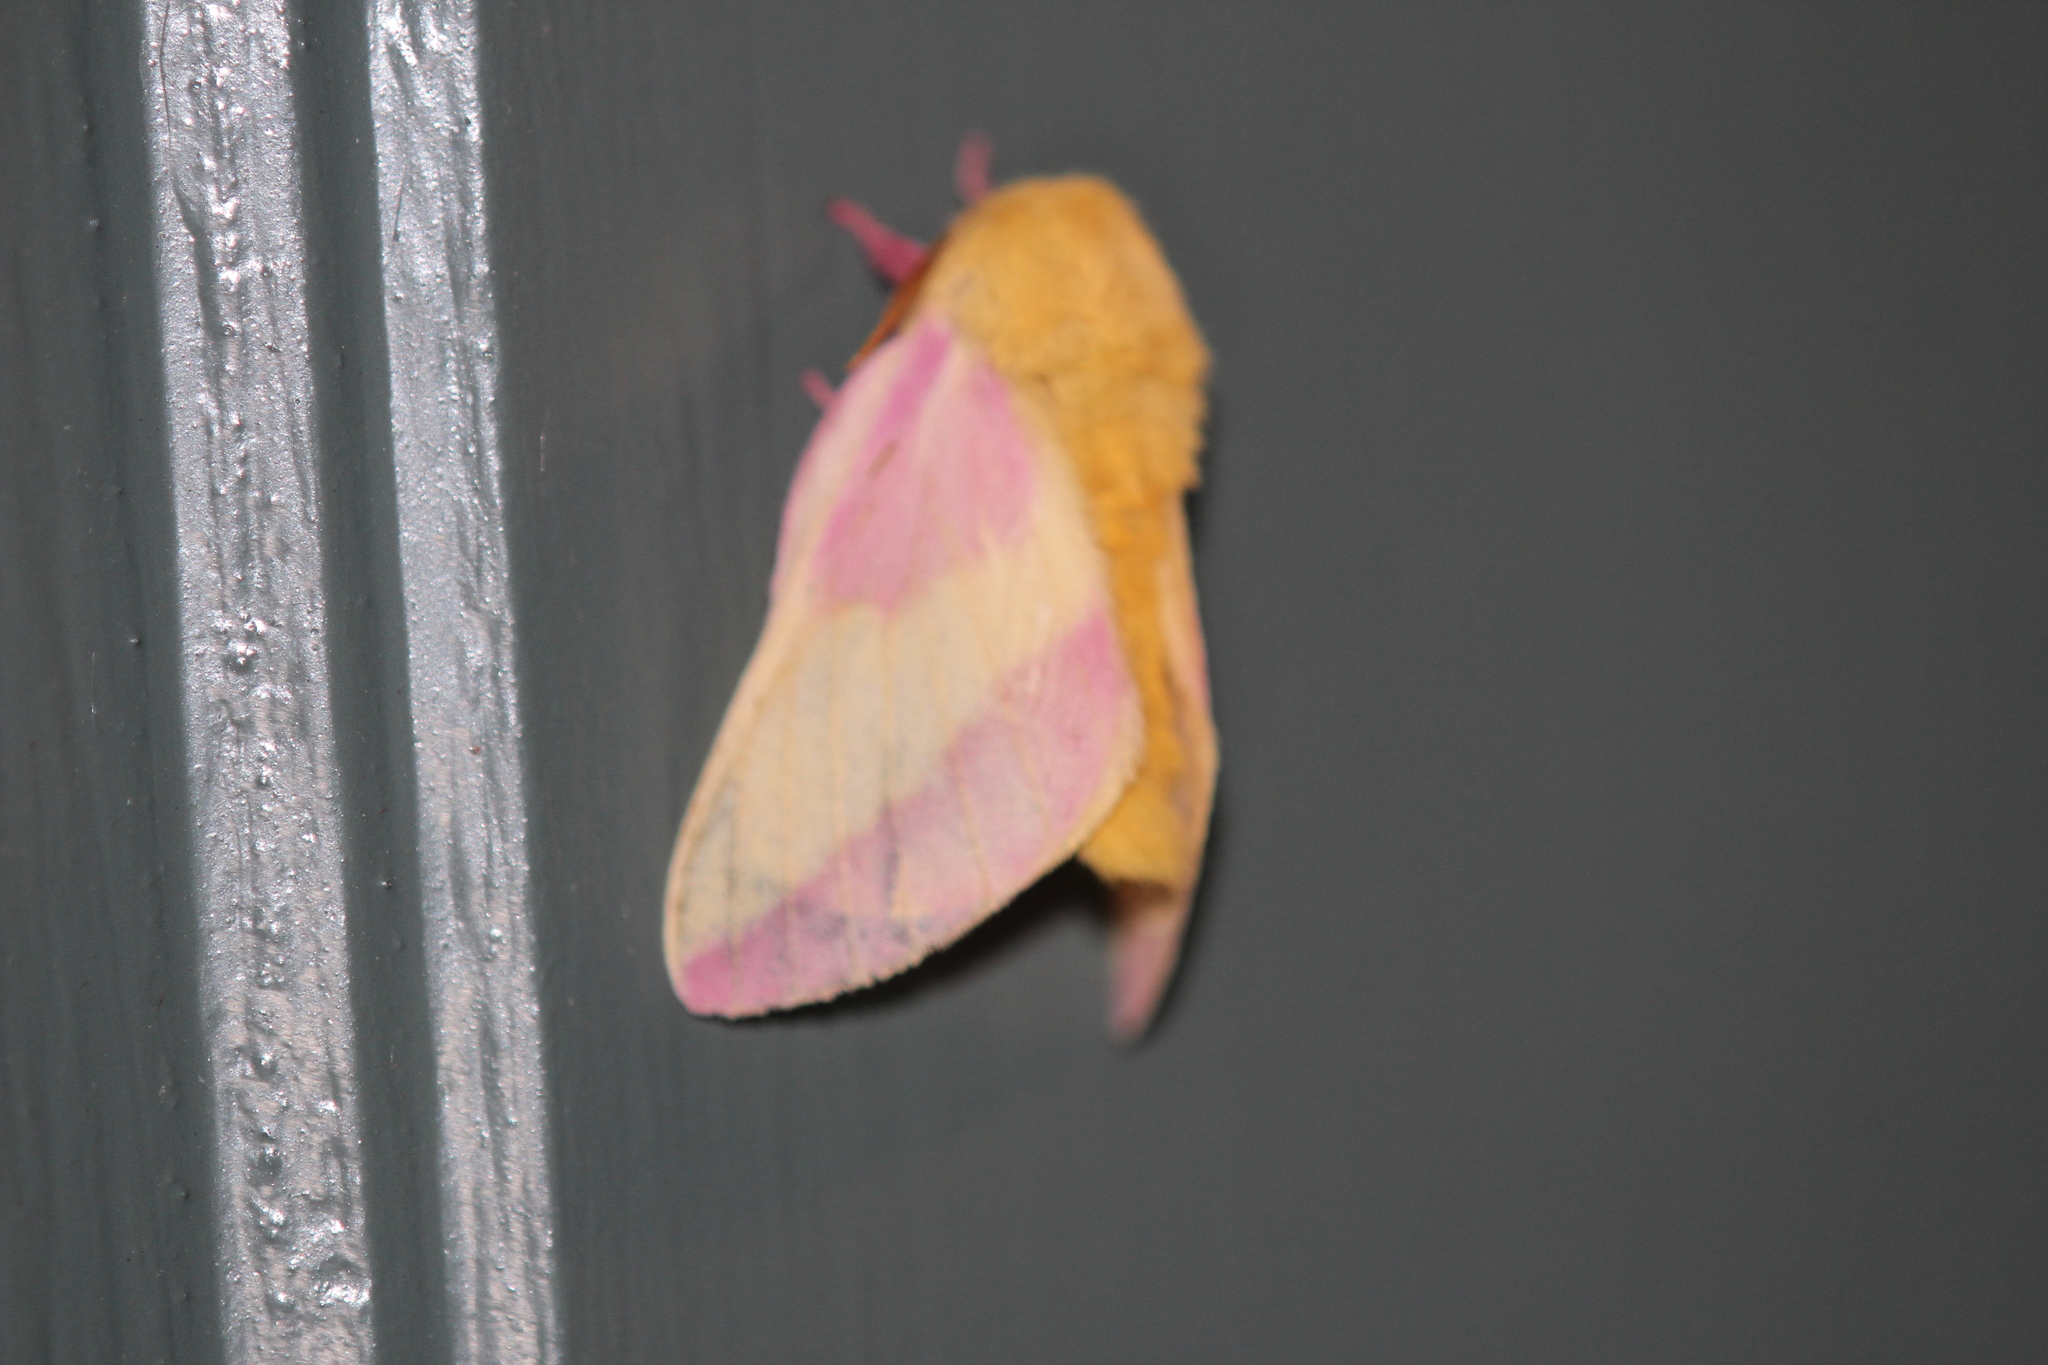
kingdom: Animalia
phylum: Arthropoda
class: Insecta
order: Lepidoptera
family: Saturniidae
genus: Dryocampa
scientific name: Dryocampa rubicunda
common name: Rosy maple moth
